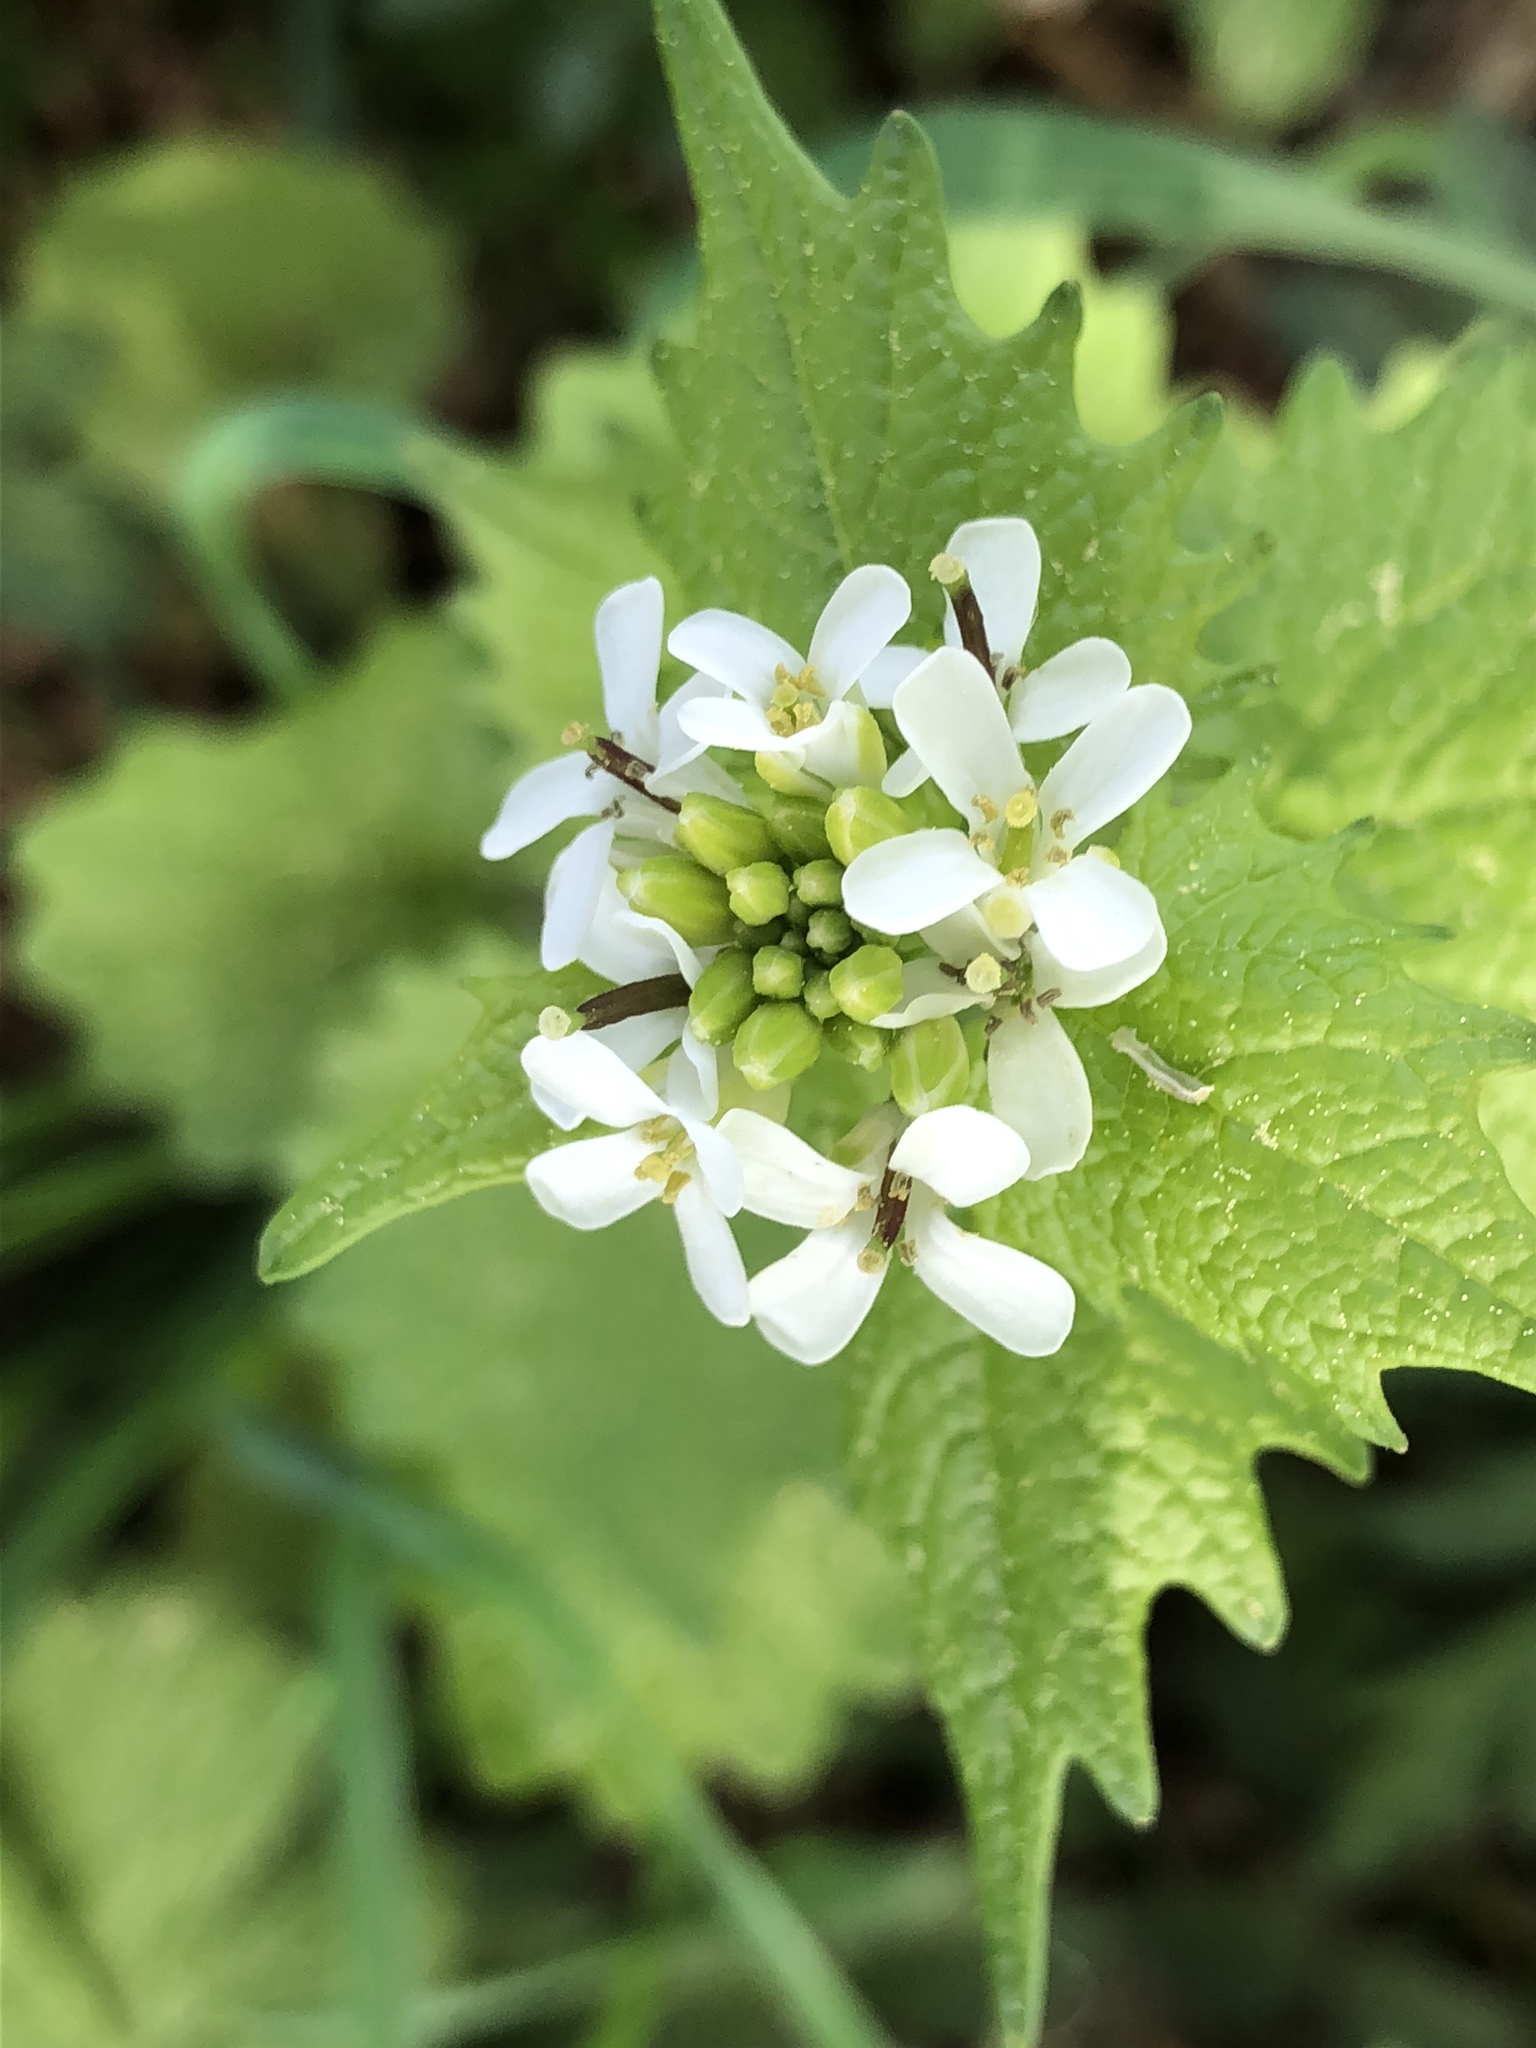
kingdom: Plantae
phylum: Tracheophyta
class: Magnoliopsida
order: Brassicales
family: Brassicaceae
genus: Alliaria
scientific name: Alliaria petiolata
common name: Garlic mustard
